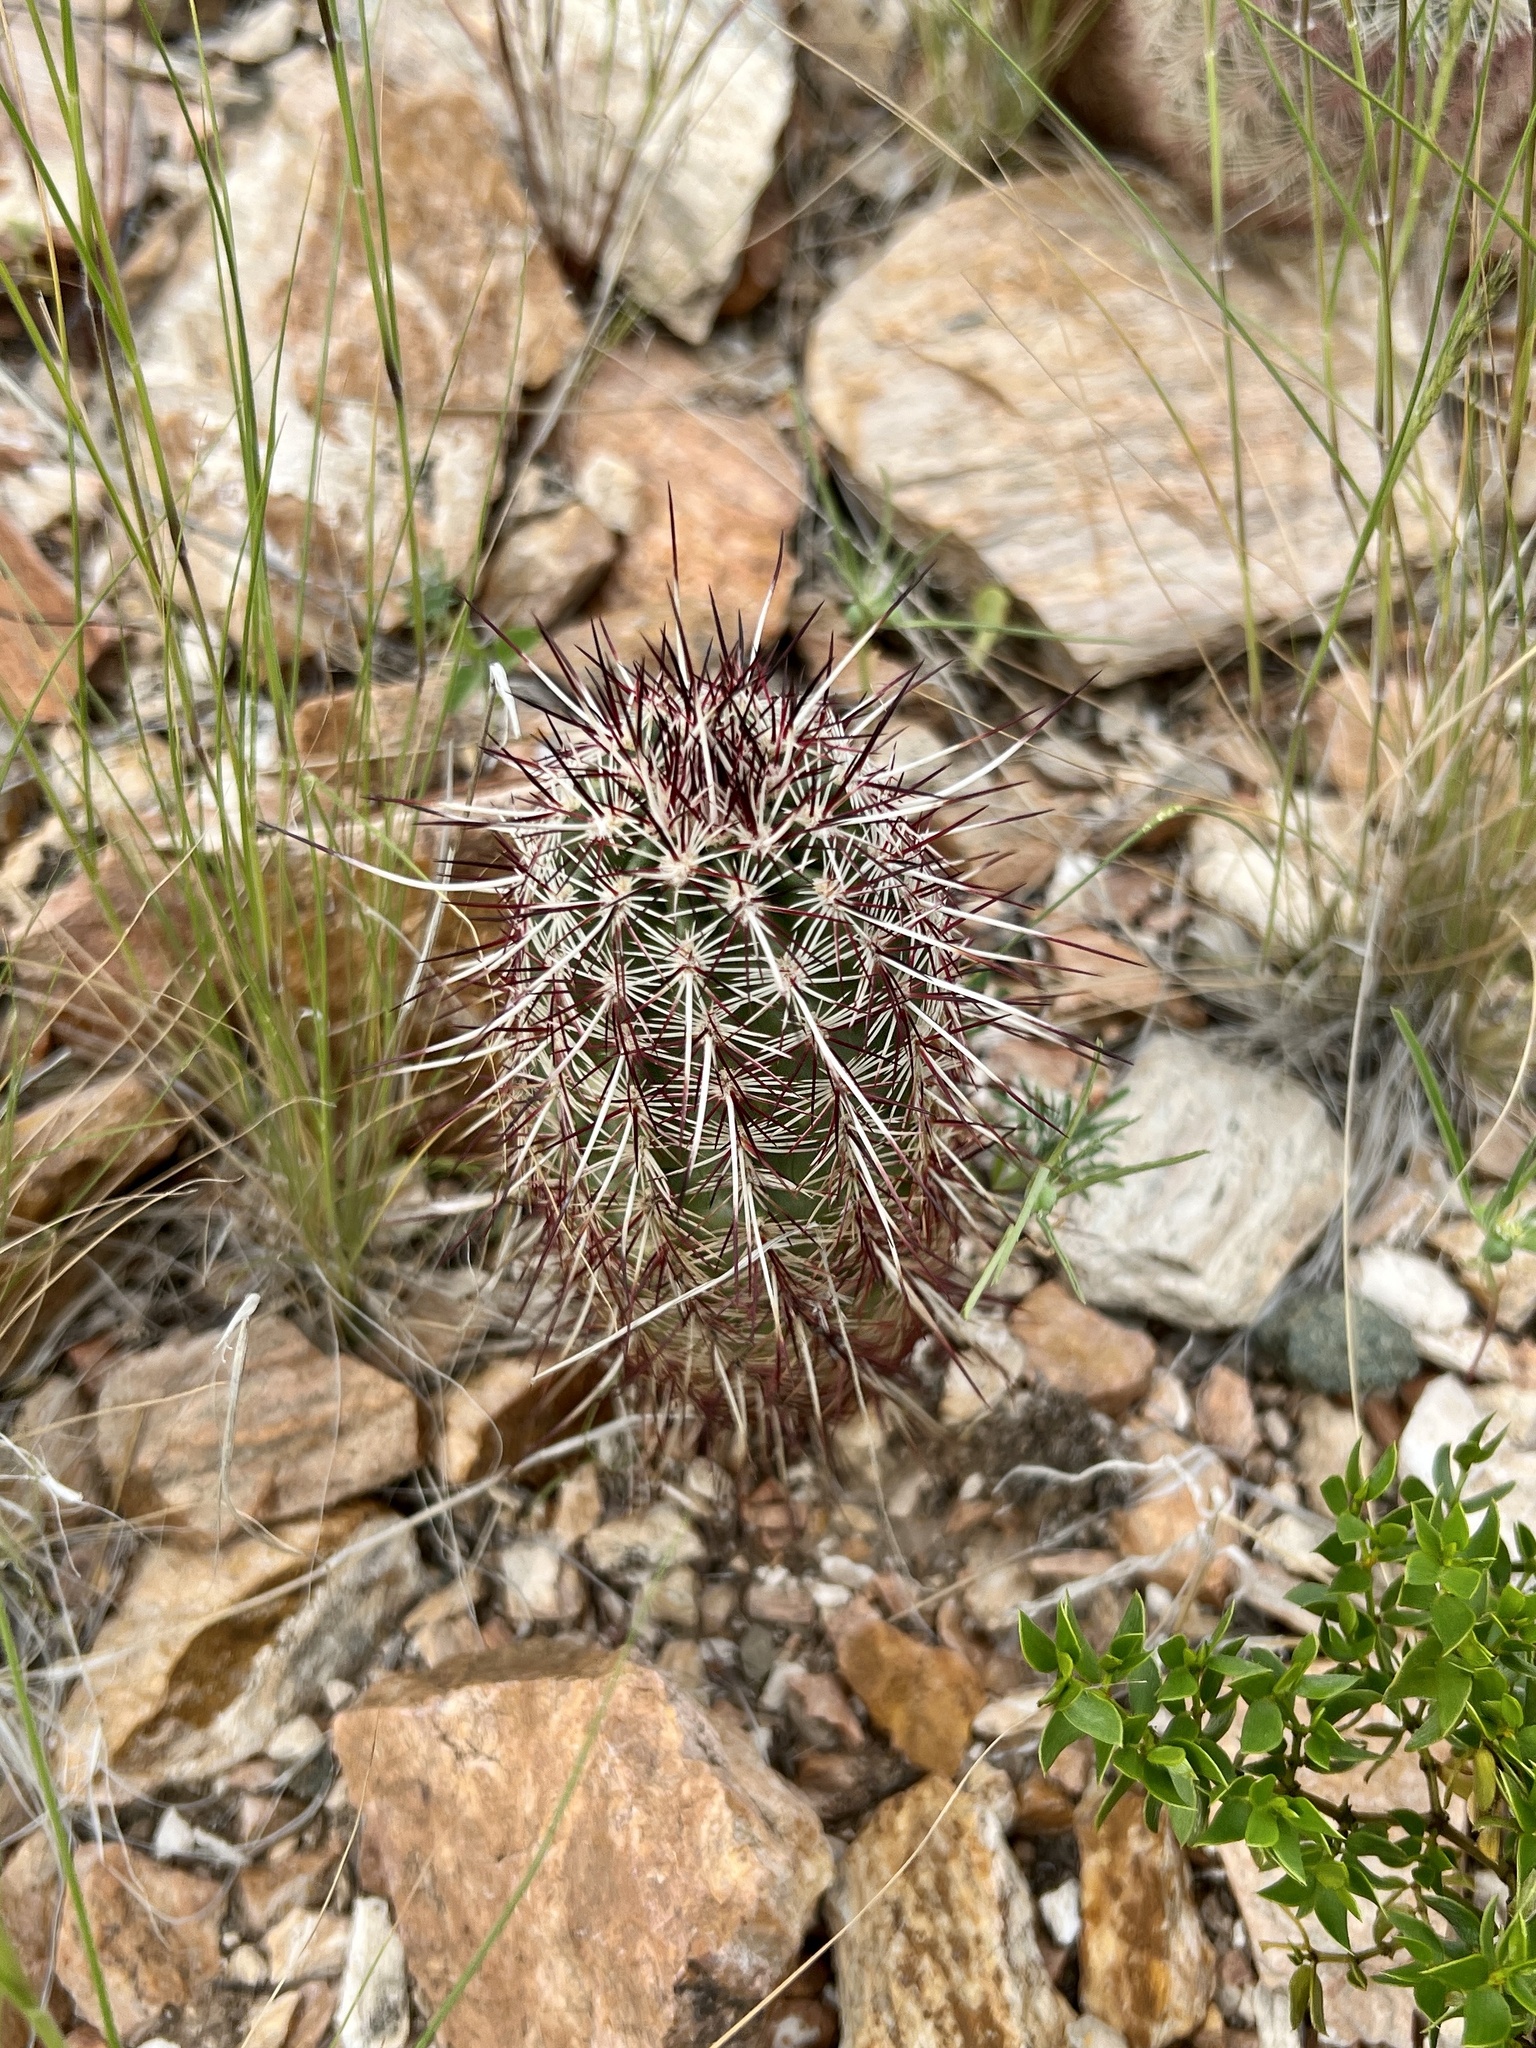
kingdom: Plantae
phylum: Tracheophyta
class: Magnoliopsida
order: Caryophyllales
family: Cactaceae
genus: Echinocereus
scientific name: Echinocereus viridiflorus
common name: Nylon hedgehog cactus
